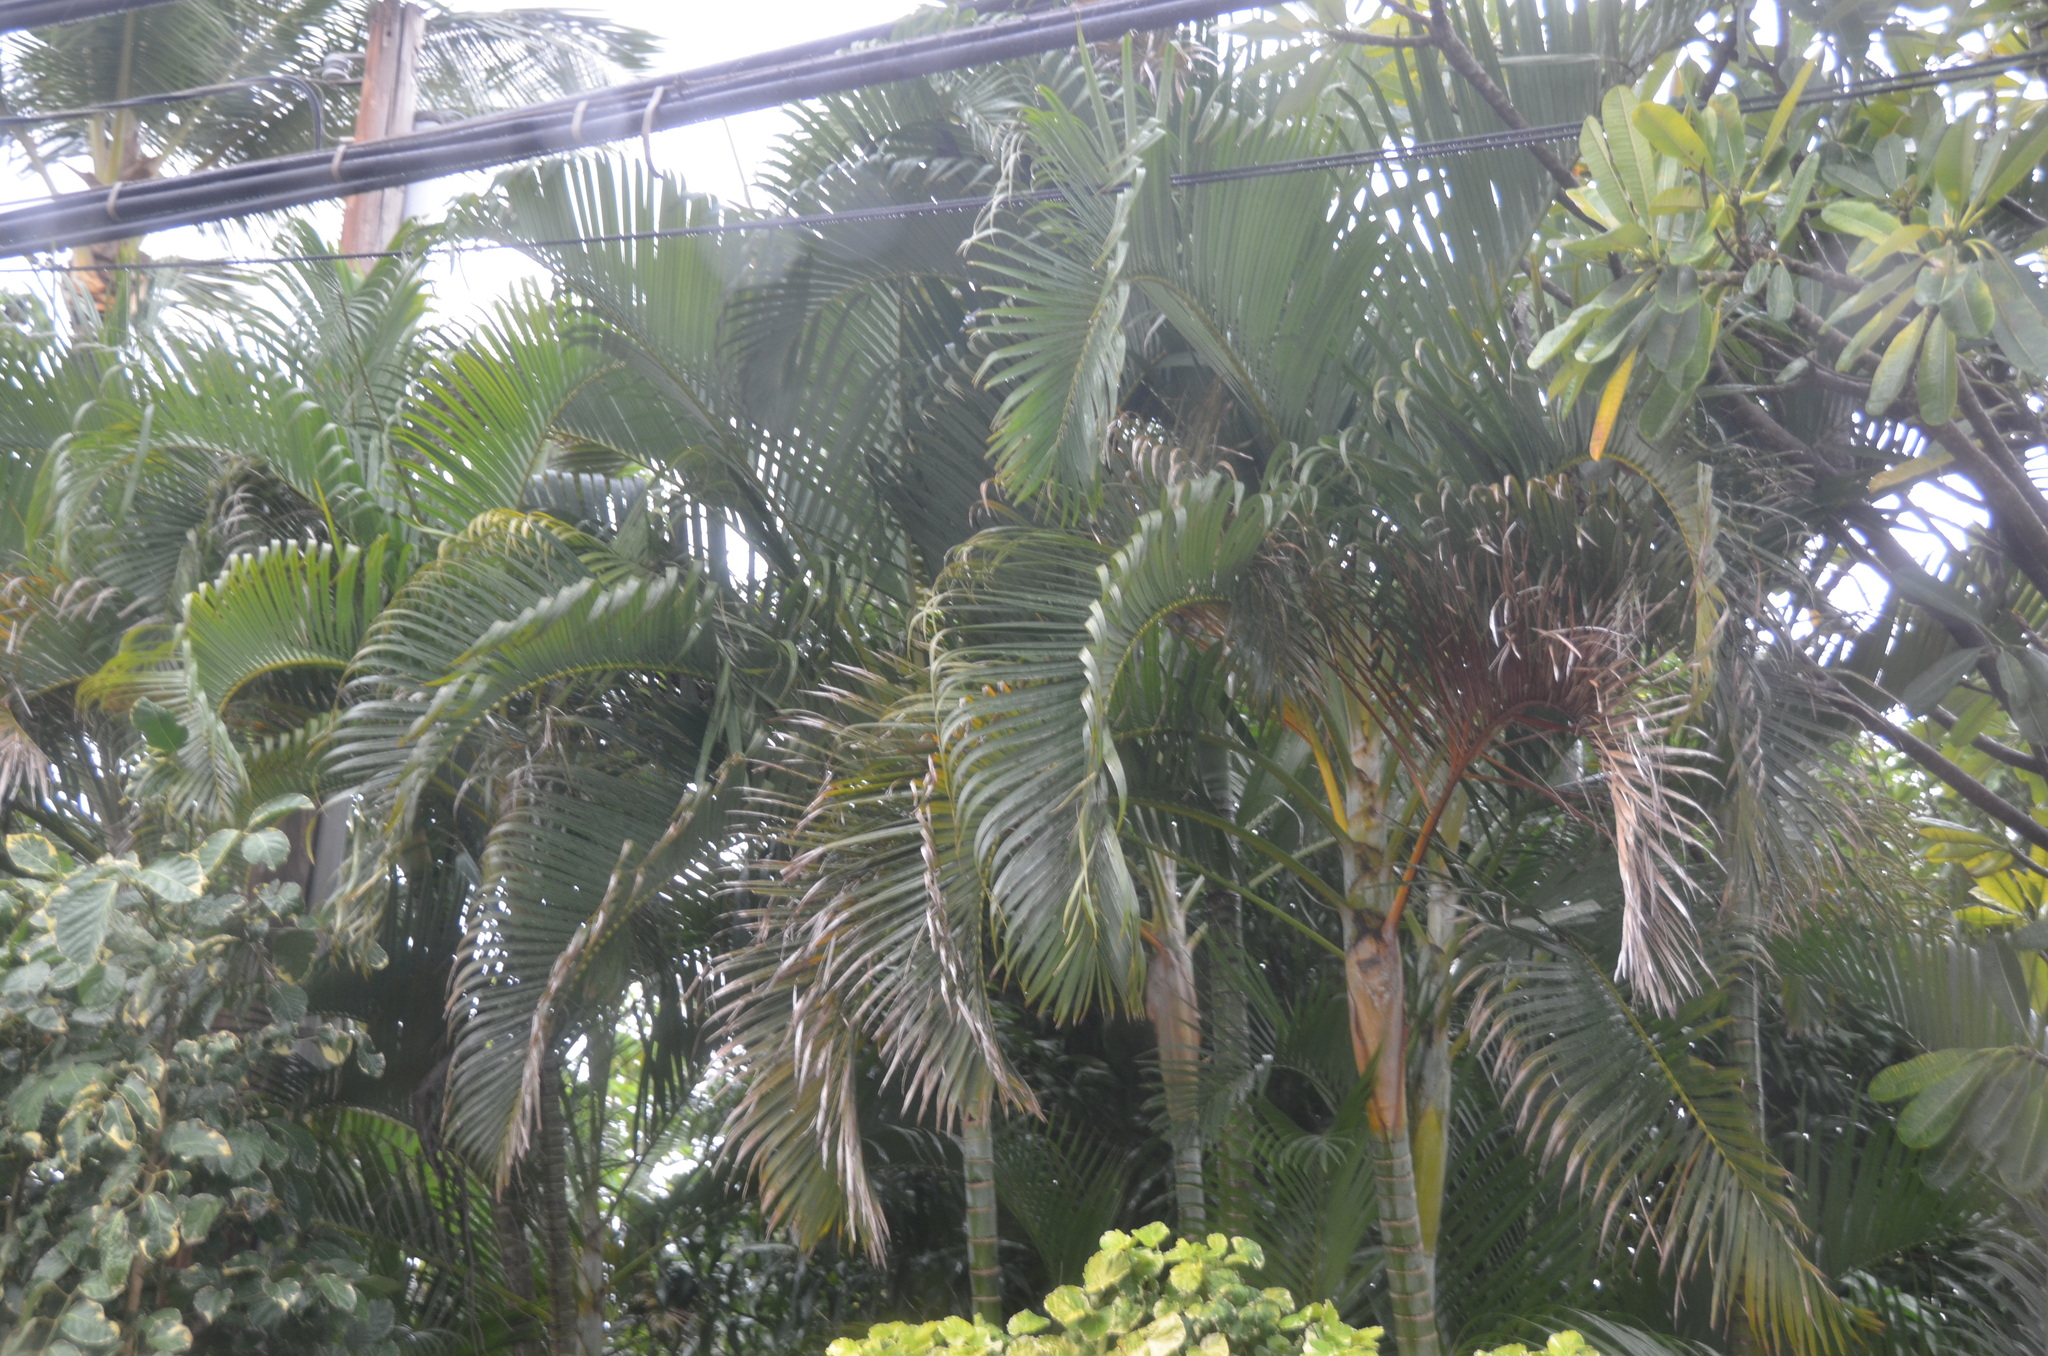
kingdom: Plantae
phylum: Tracheophyta
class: Liliopsida
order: Arecales
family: Arecaceae
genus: Dypsis
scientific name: Dypsis lutescens
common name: Yellow butterfly palm
